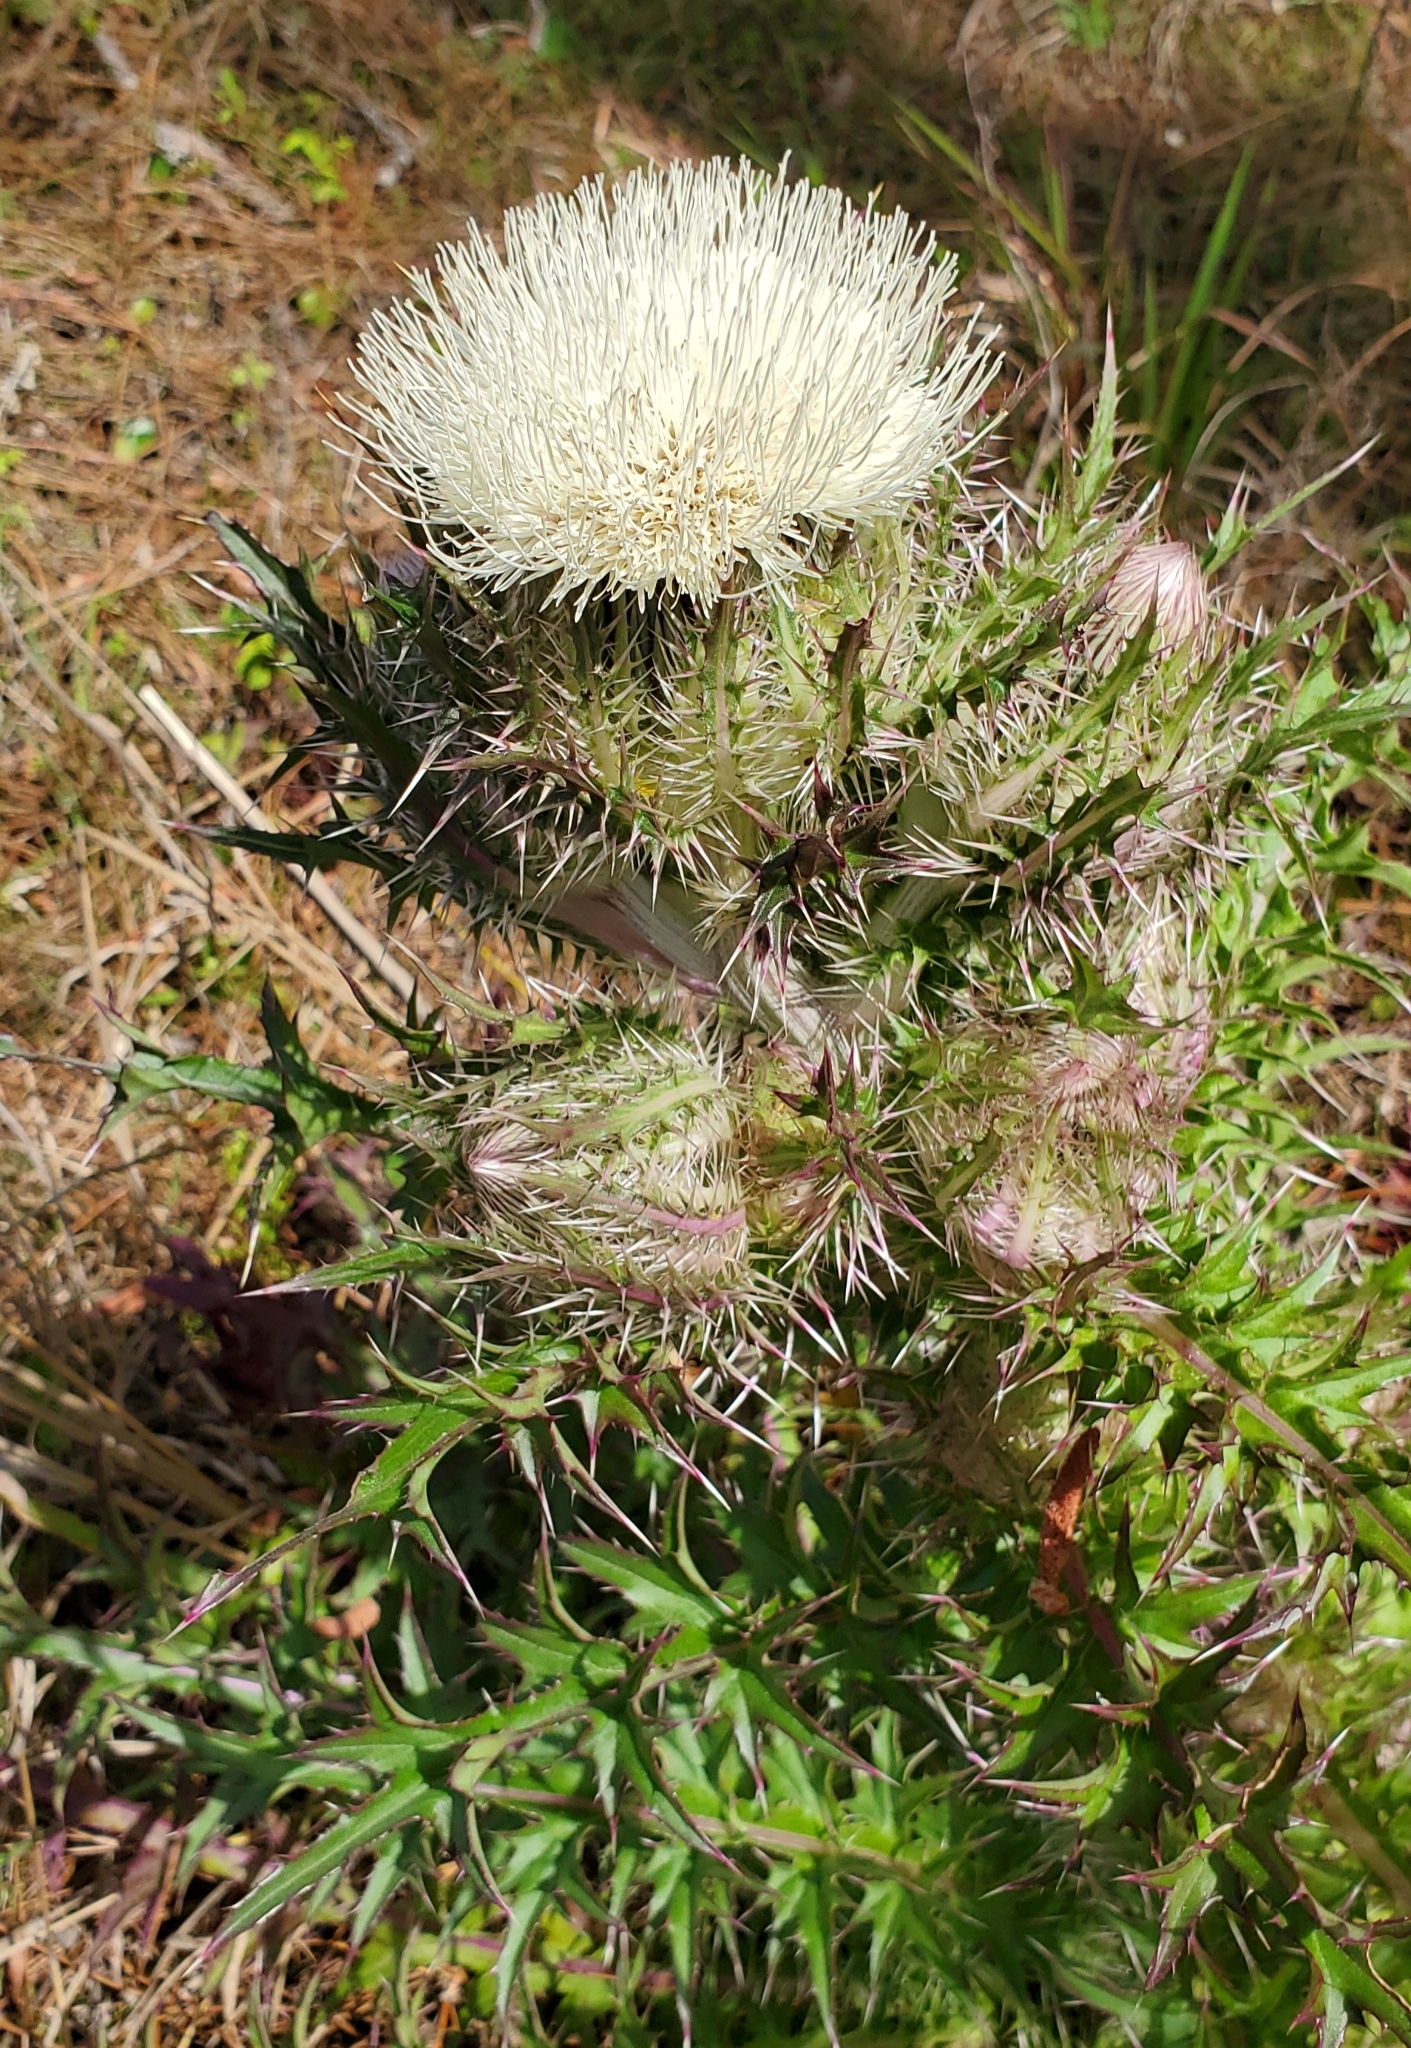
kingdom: Plantae
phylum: Tracheophyta
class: Magnoliopsida
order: Asterales
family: Asteraceae
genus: Cirsium
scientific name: Cirsium horridulum
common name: Bristly thistle
